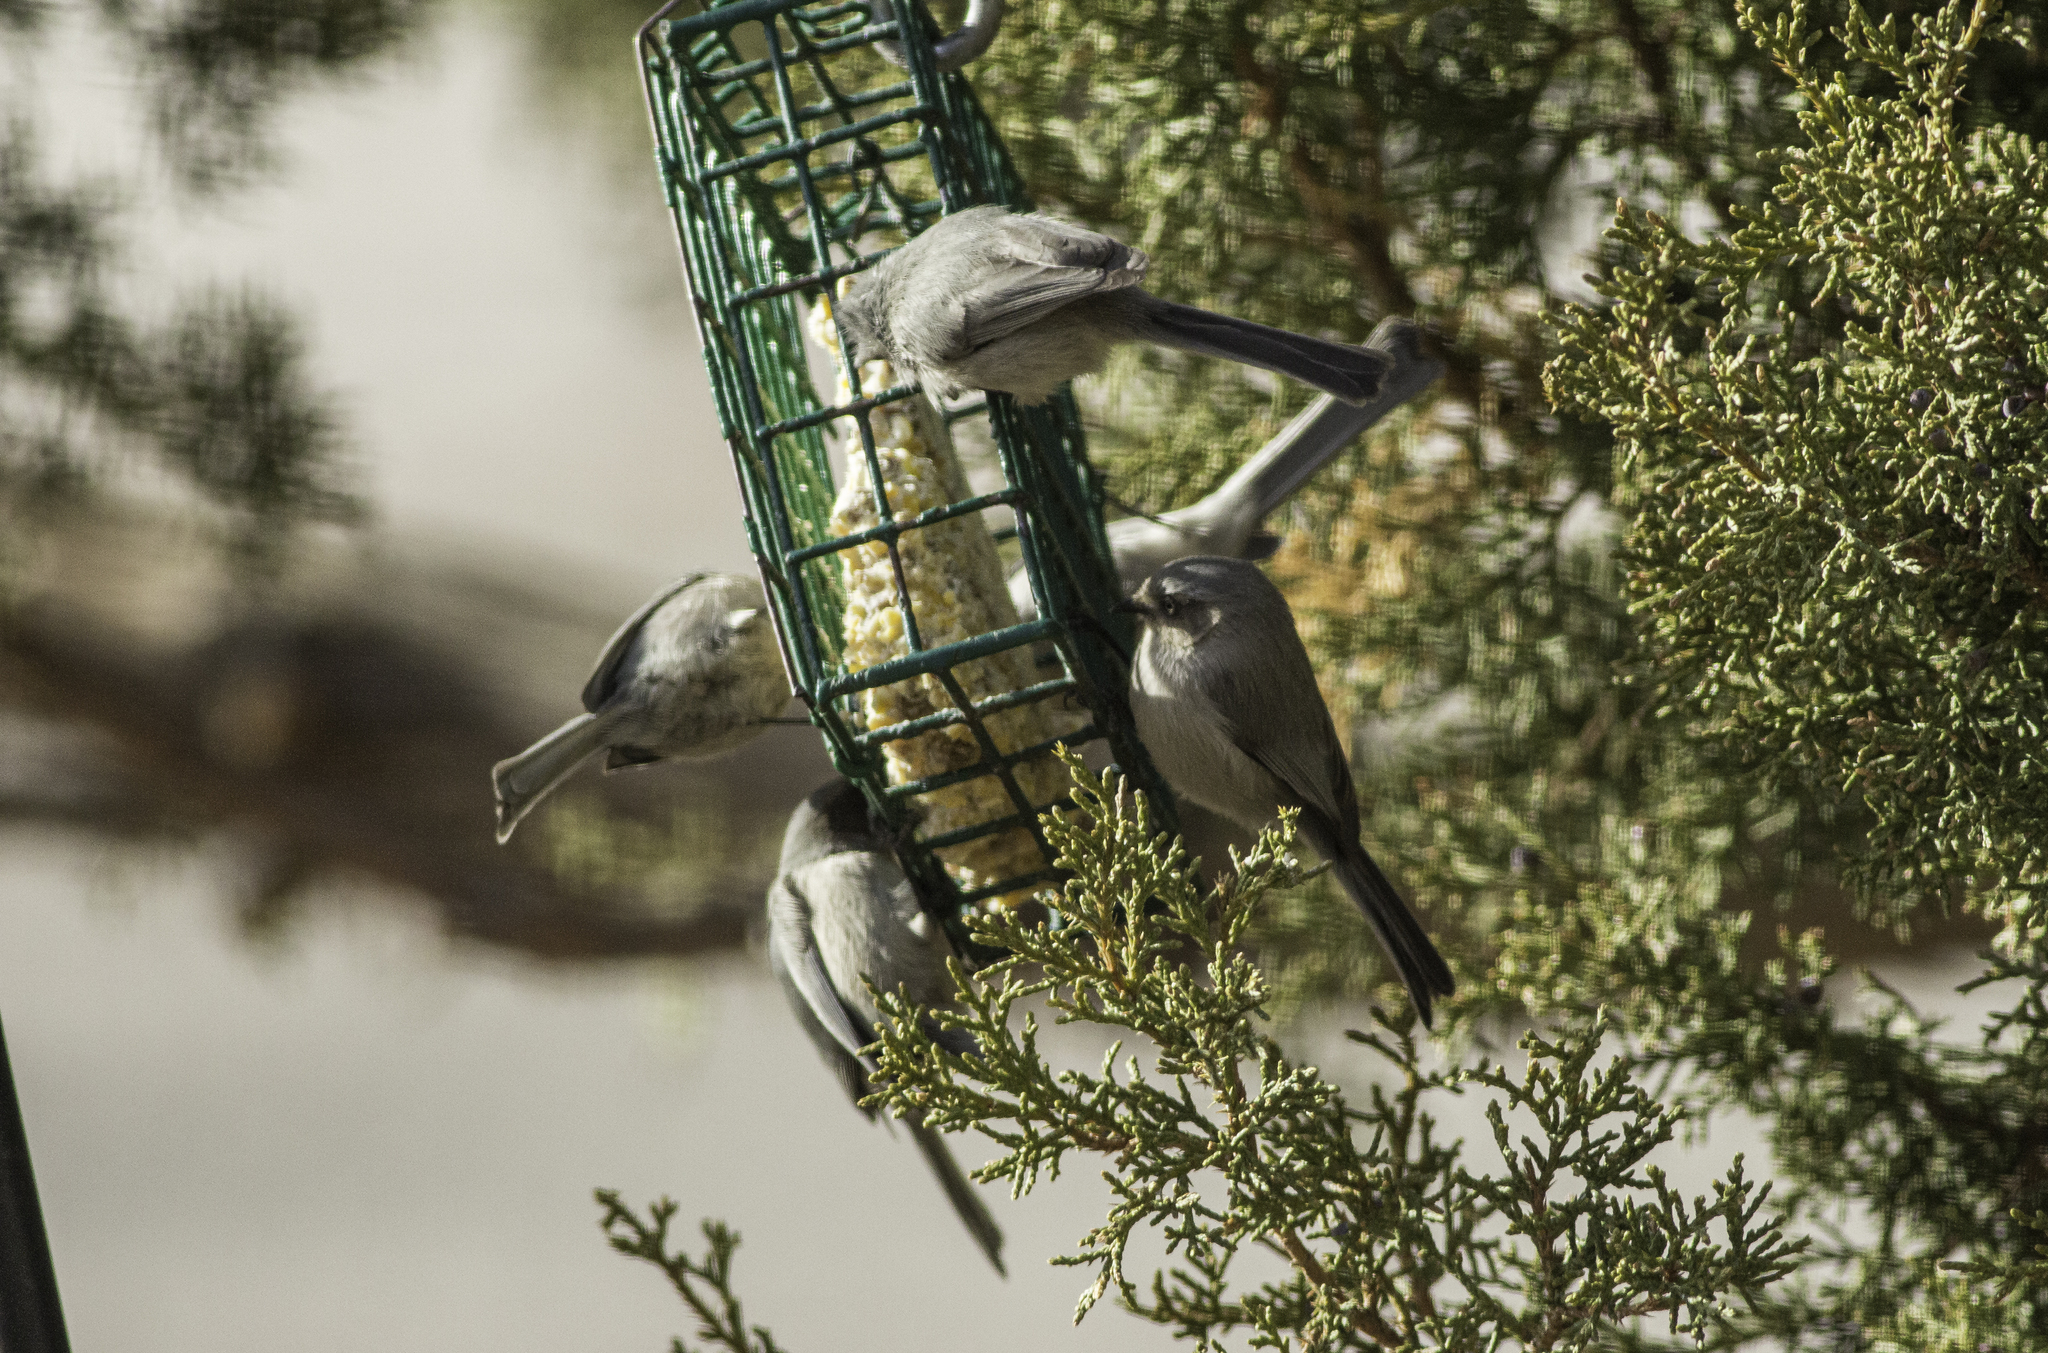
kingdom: Animalia
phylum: Chordata
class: Aves
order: Passeriformes
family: Aegithalidae
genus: Psaltriparus
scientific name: Psaltriparus minimus
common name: American bushtit
